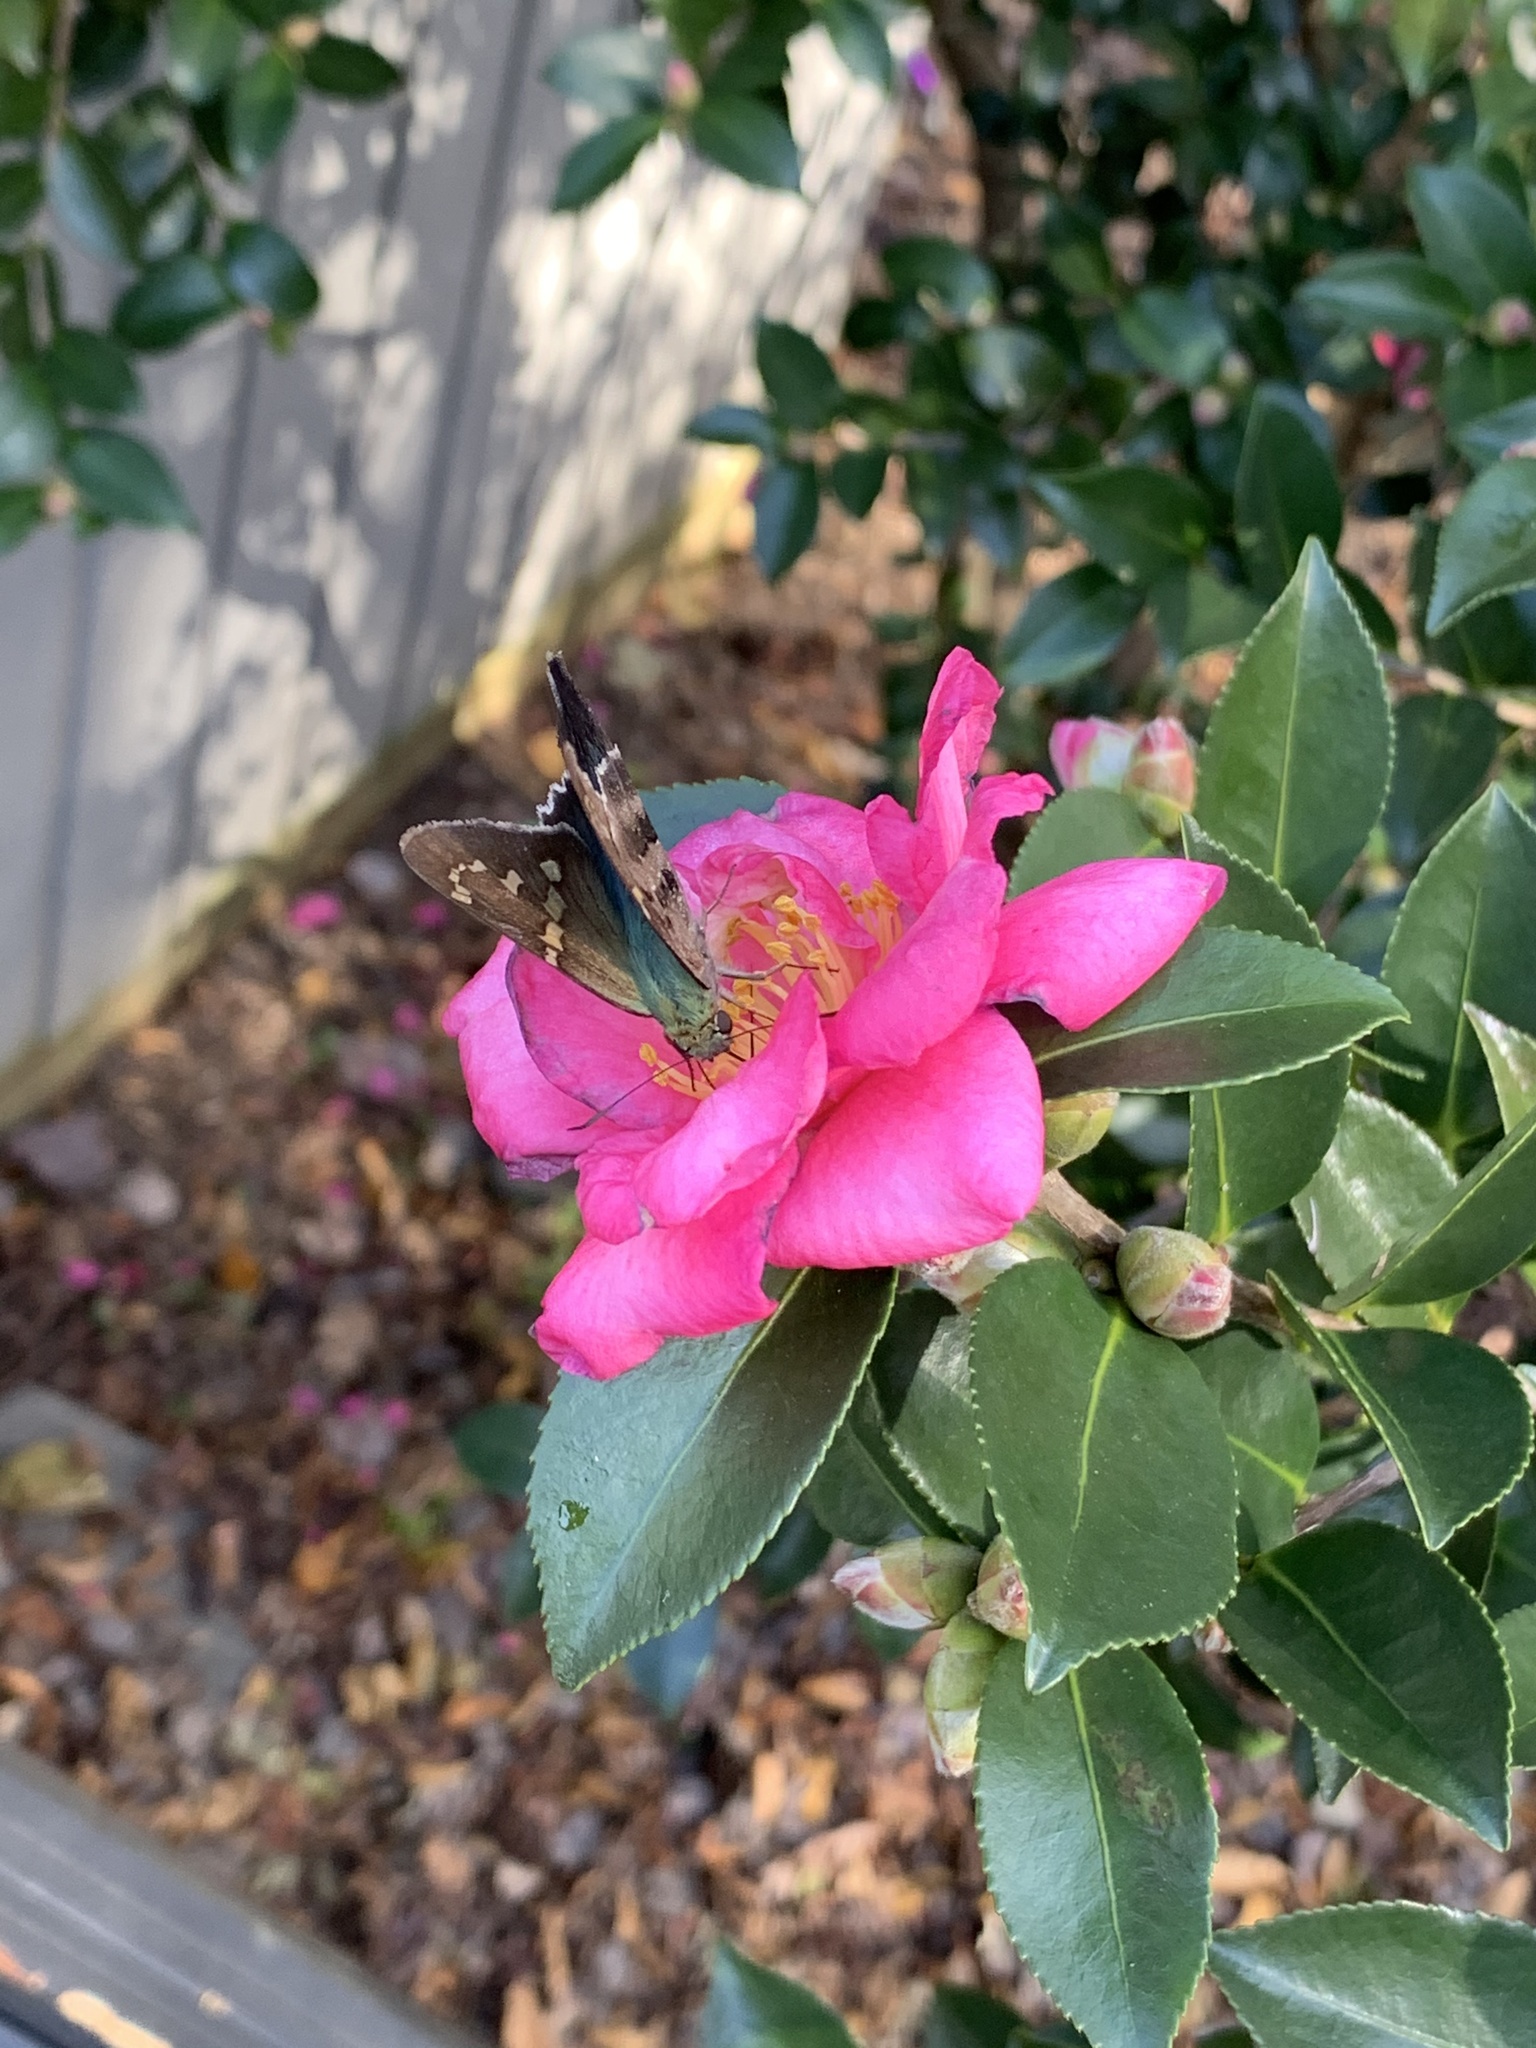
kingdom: Animalia
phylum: Arthropoda
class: Insecta
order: Lepidoptera
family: Hesperiidae
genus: Urbanus
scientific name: Urbanus proteus
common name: Long-tailed skipper
